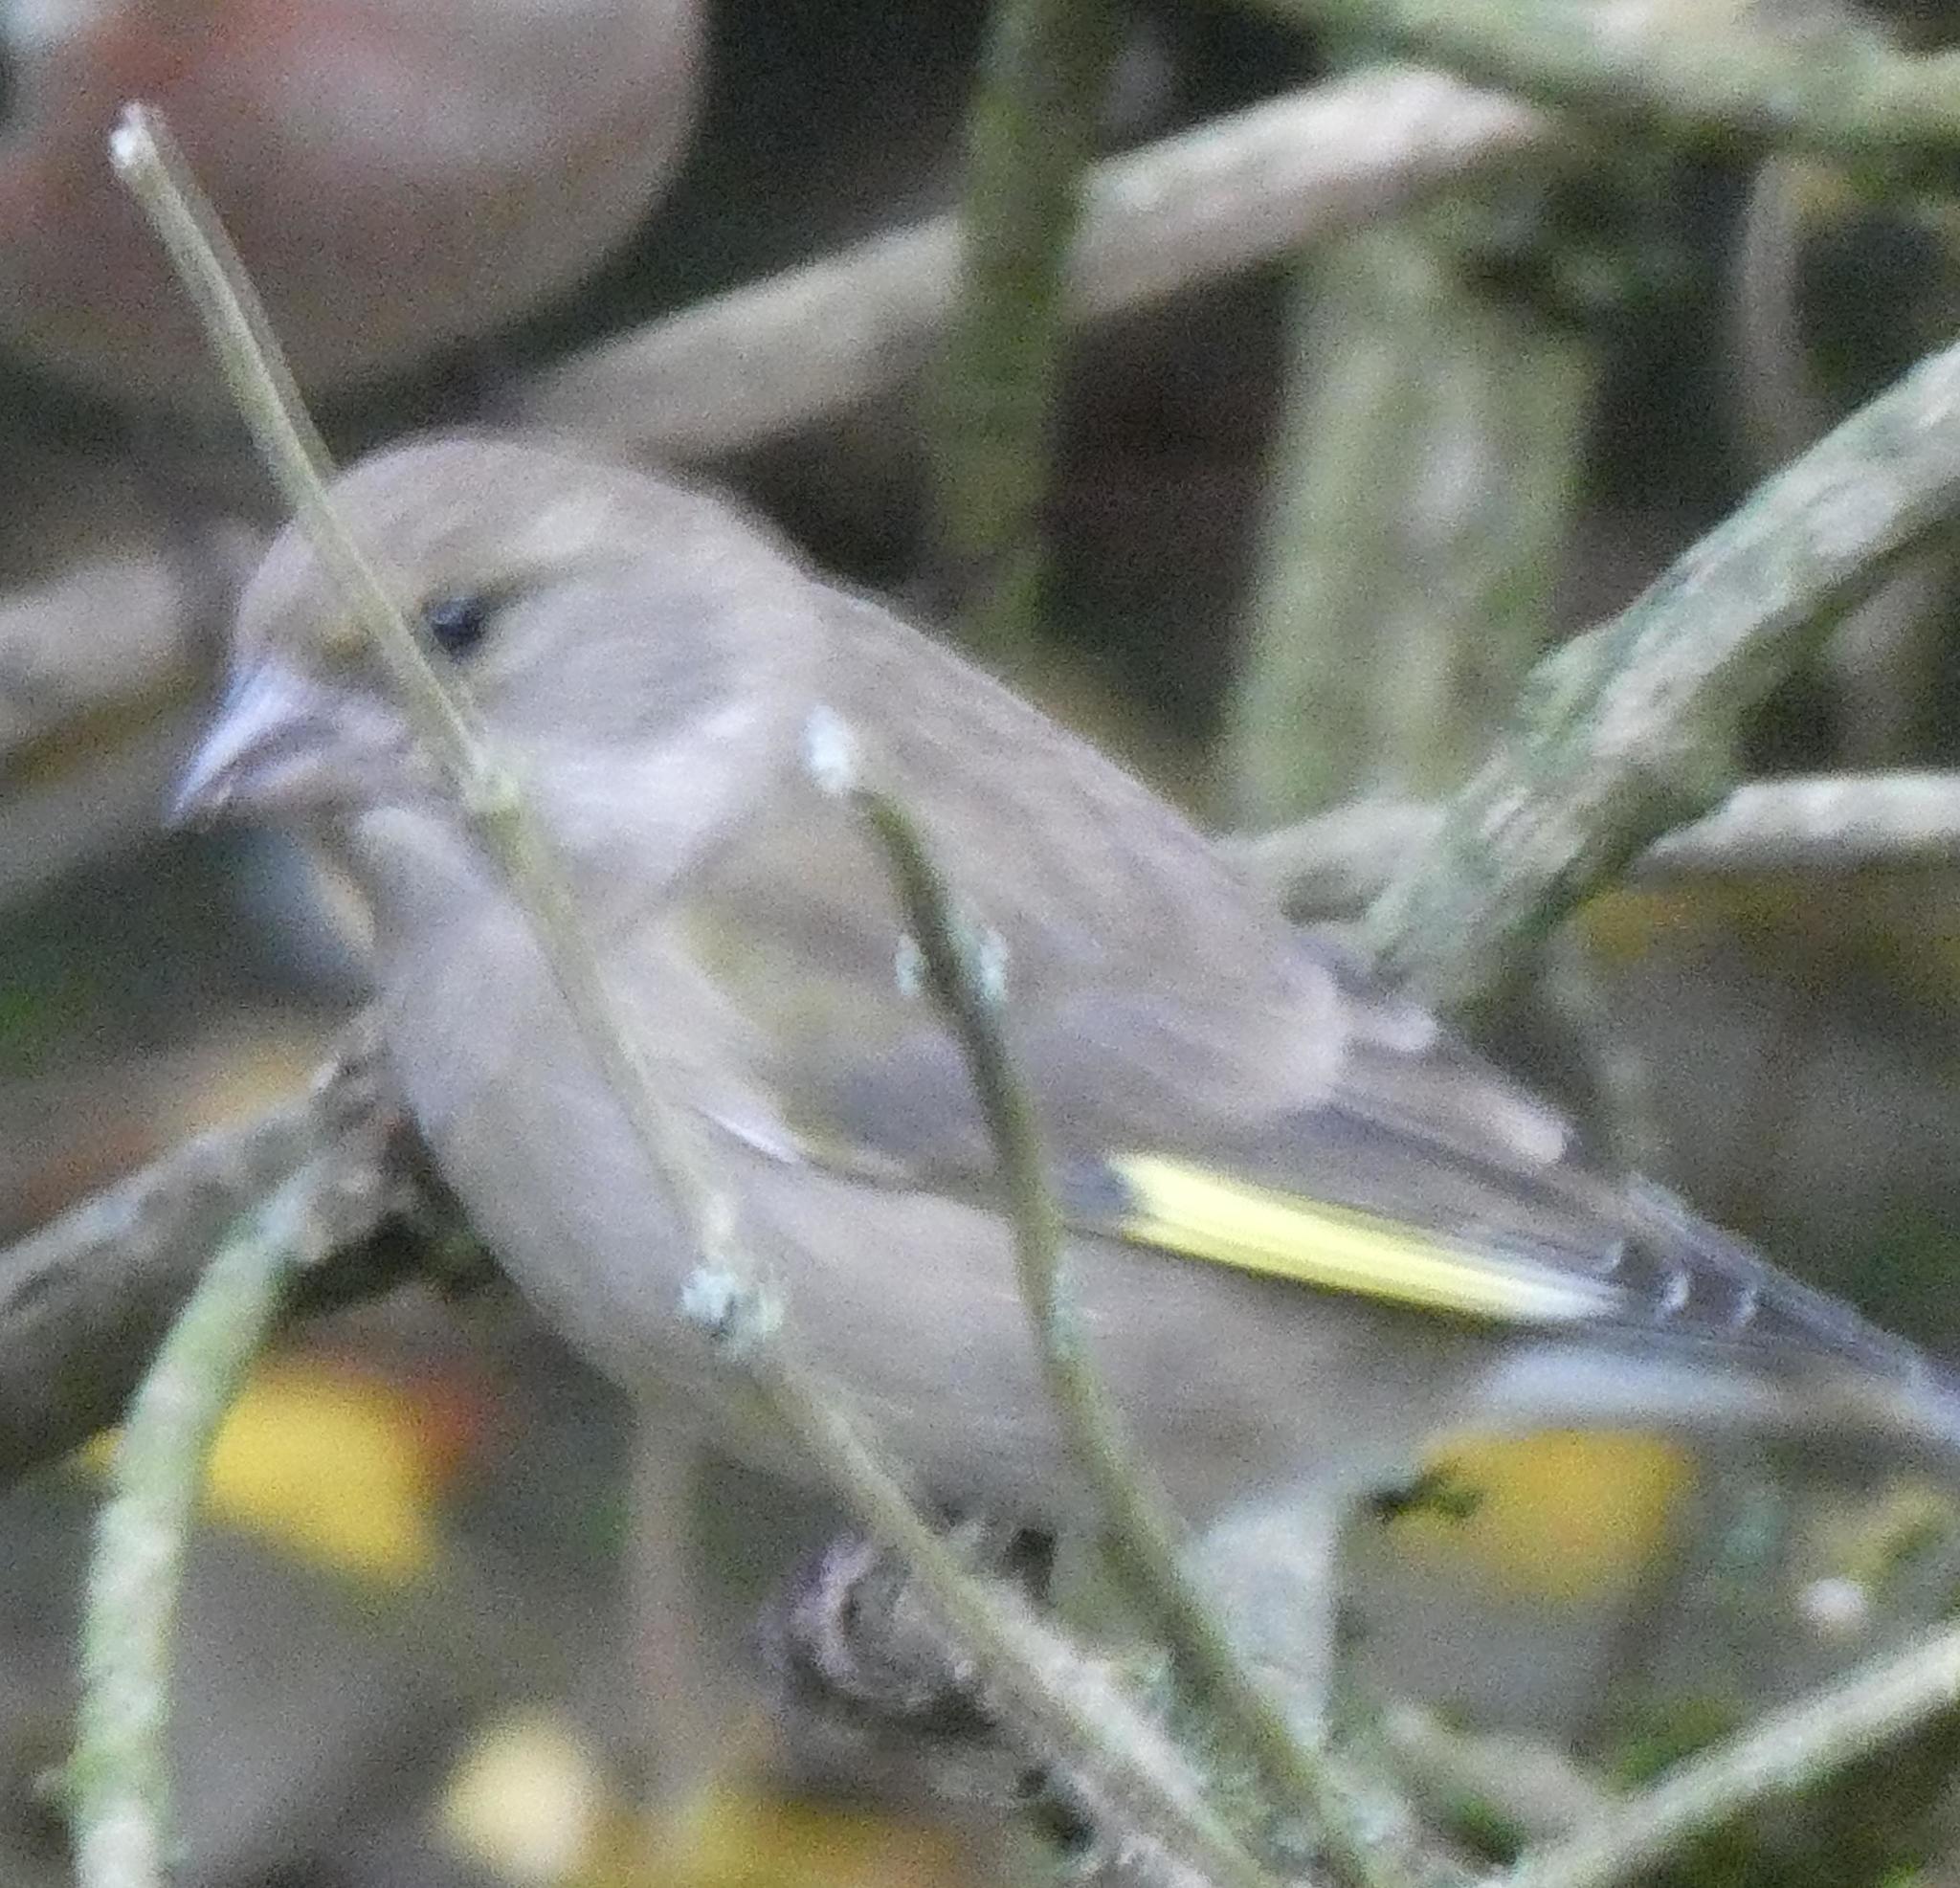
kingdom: Plantae
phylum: Tracheophyta
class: Liliopsida
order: Poales
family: Poaceae
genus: Chloris
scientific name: Chloris chloris
